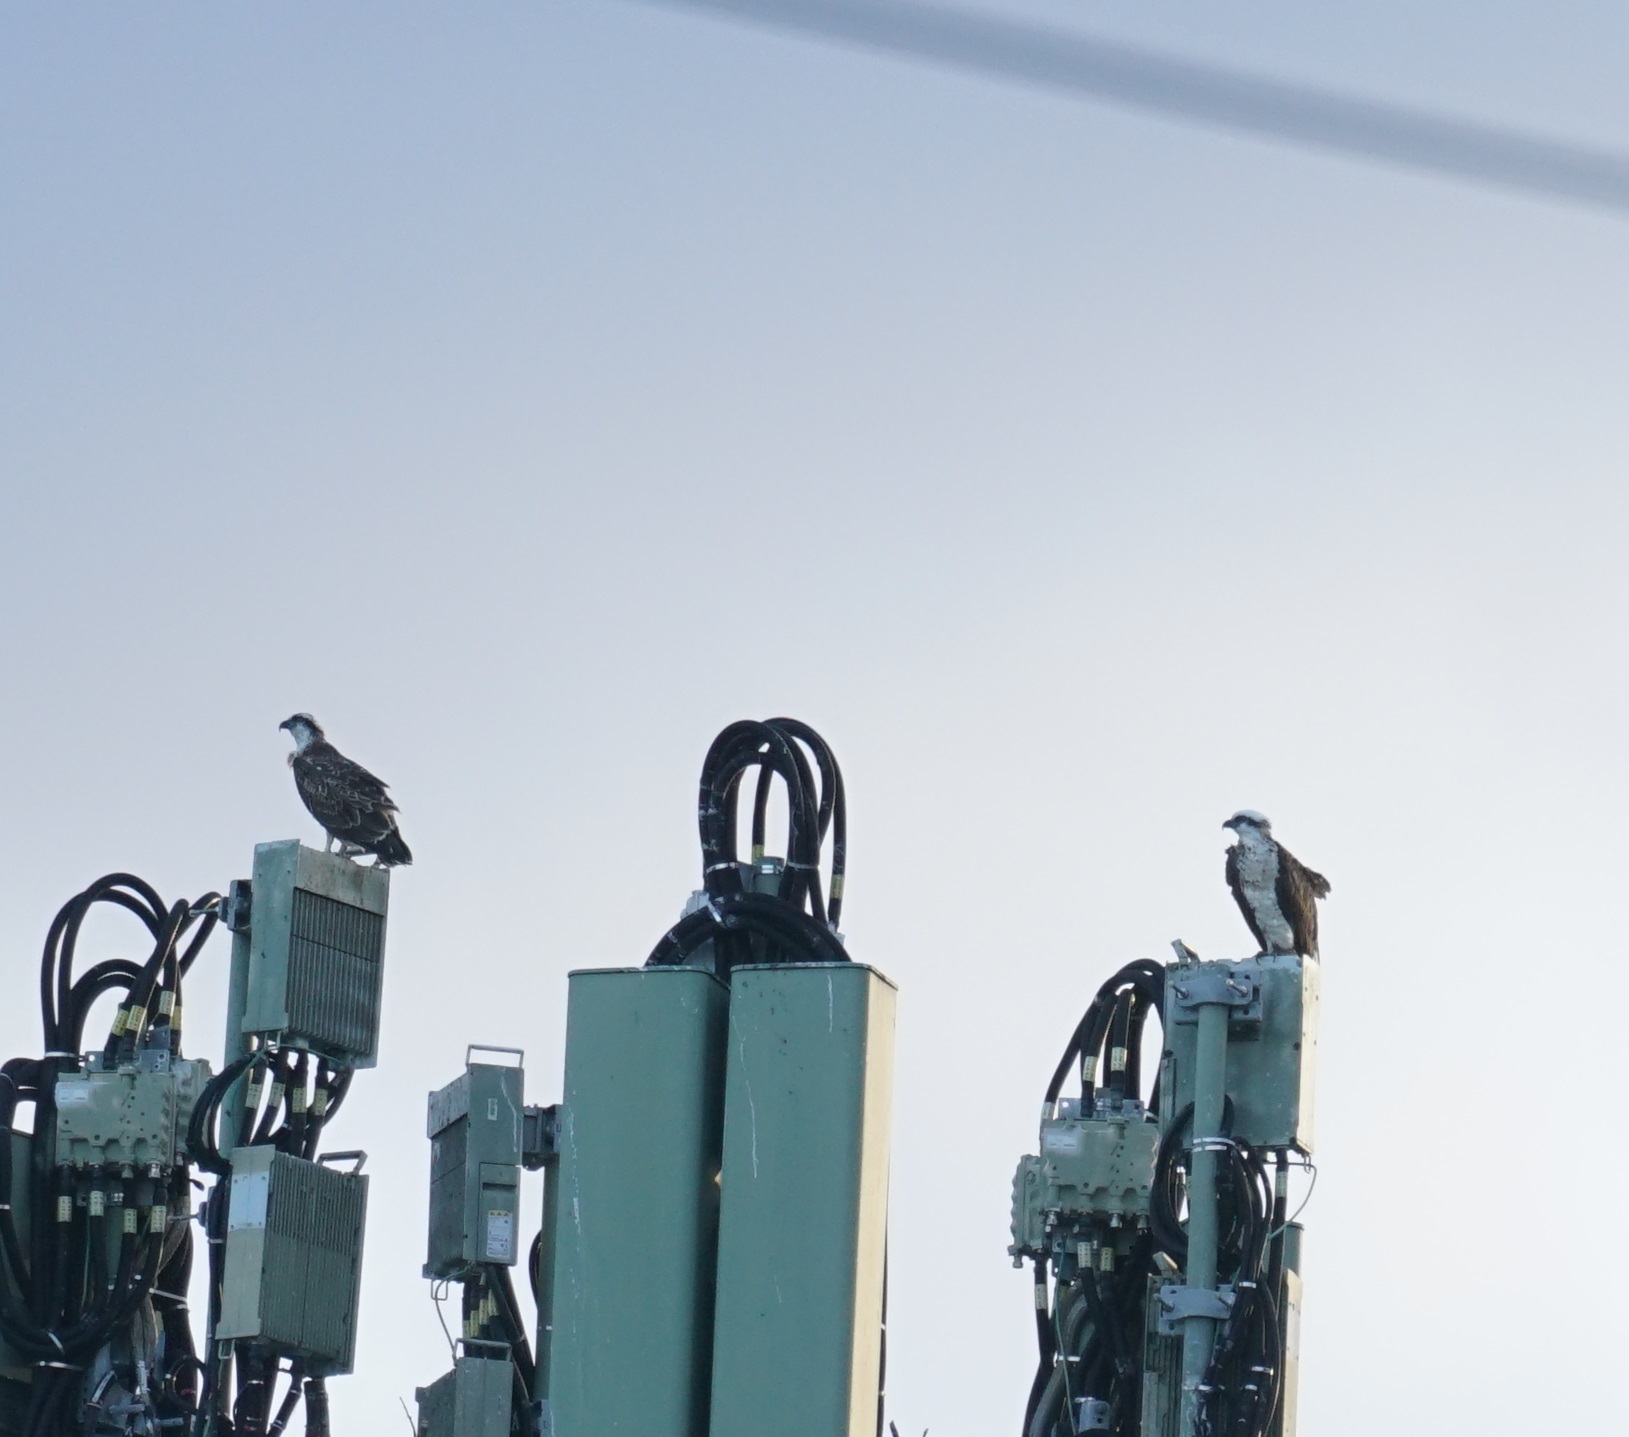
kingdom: Animalia
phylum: Chordata
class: Aves
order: Accipitriformes
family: Pandionidae
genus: Pandion
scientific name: Pandion haliaetus
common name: Osprey
